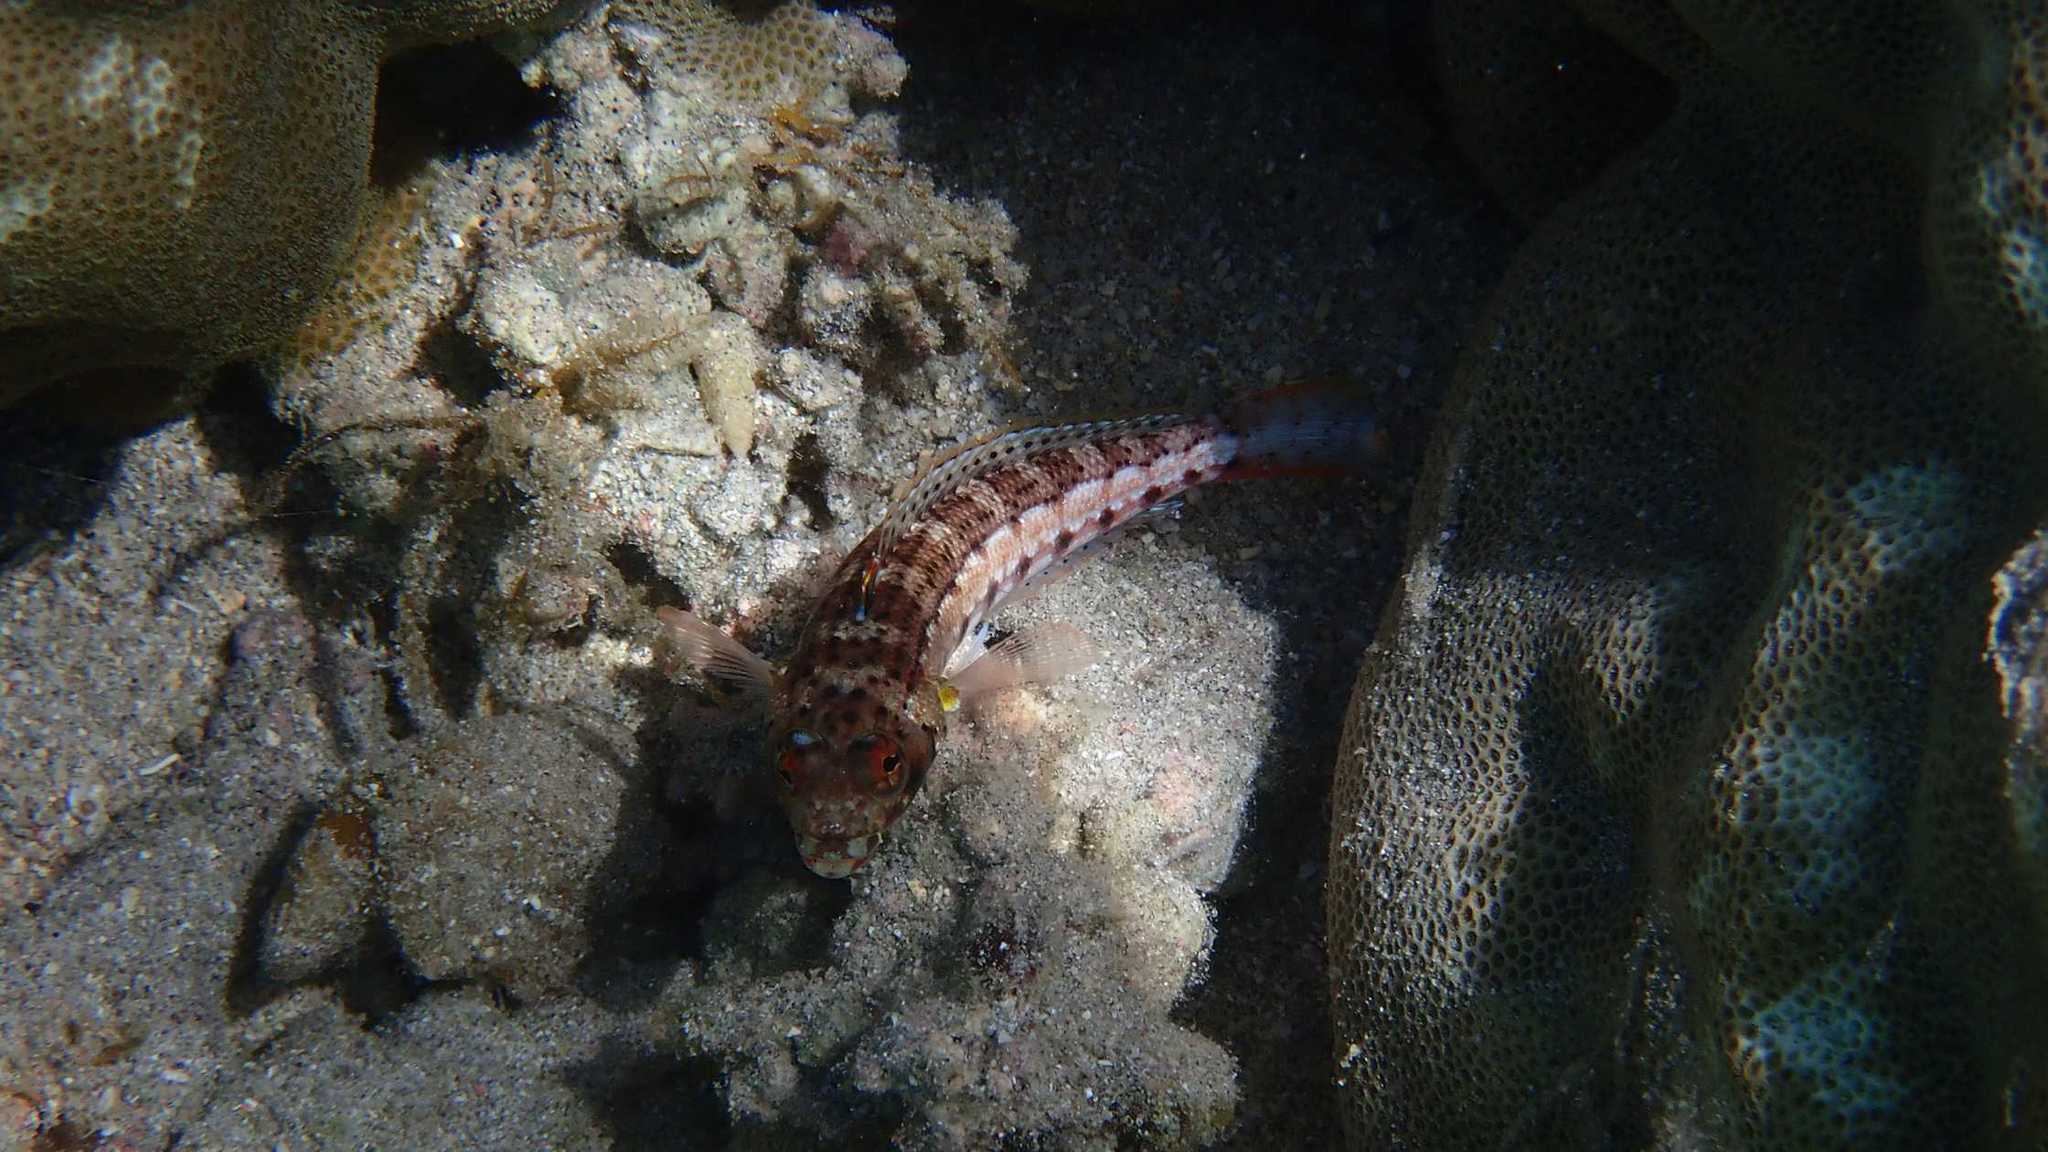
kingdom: Animalia
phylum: Chordata
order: Perciformes
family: Pinguipedidae
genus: Parapercis
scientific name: Parapercis punctulata
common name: Spotted sandperch
